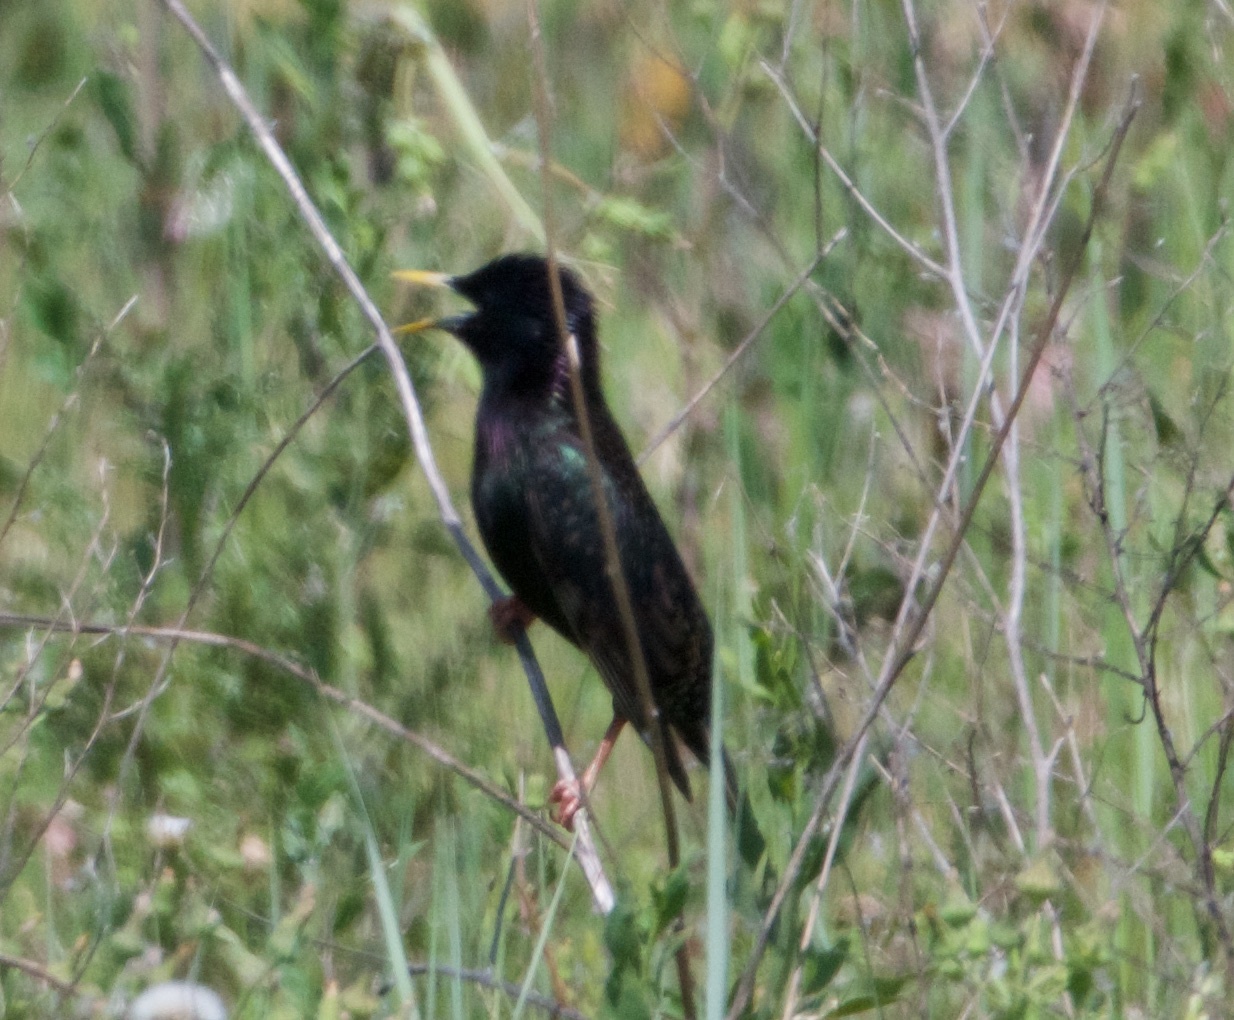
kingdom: Animalia
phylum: Chordata
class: Aves
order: Passeriformes
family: Sturnidae
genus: Sturnus
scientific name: Sturnus vulgaris
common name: Common starling
